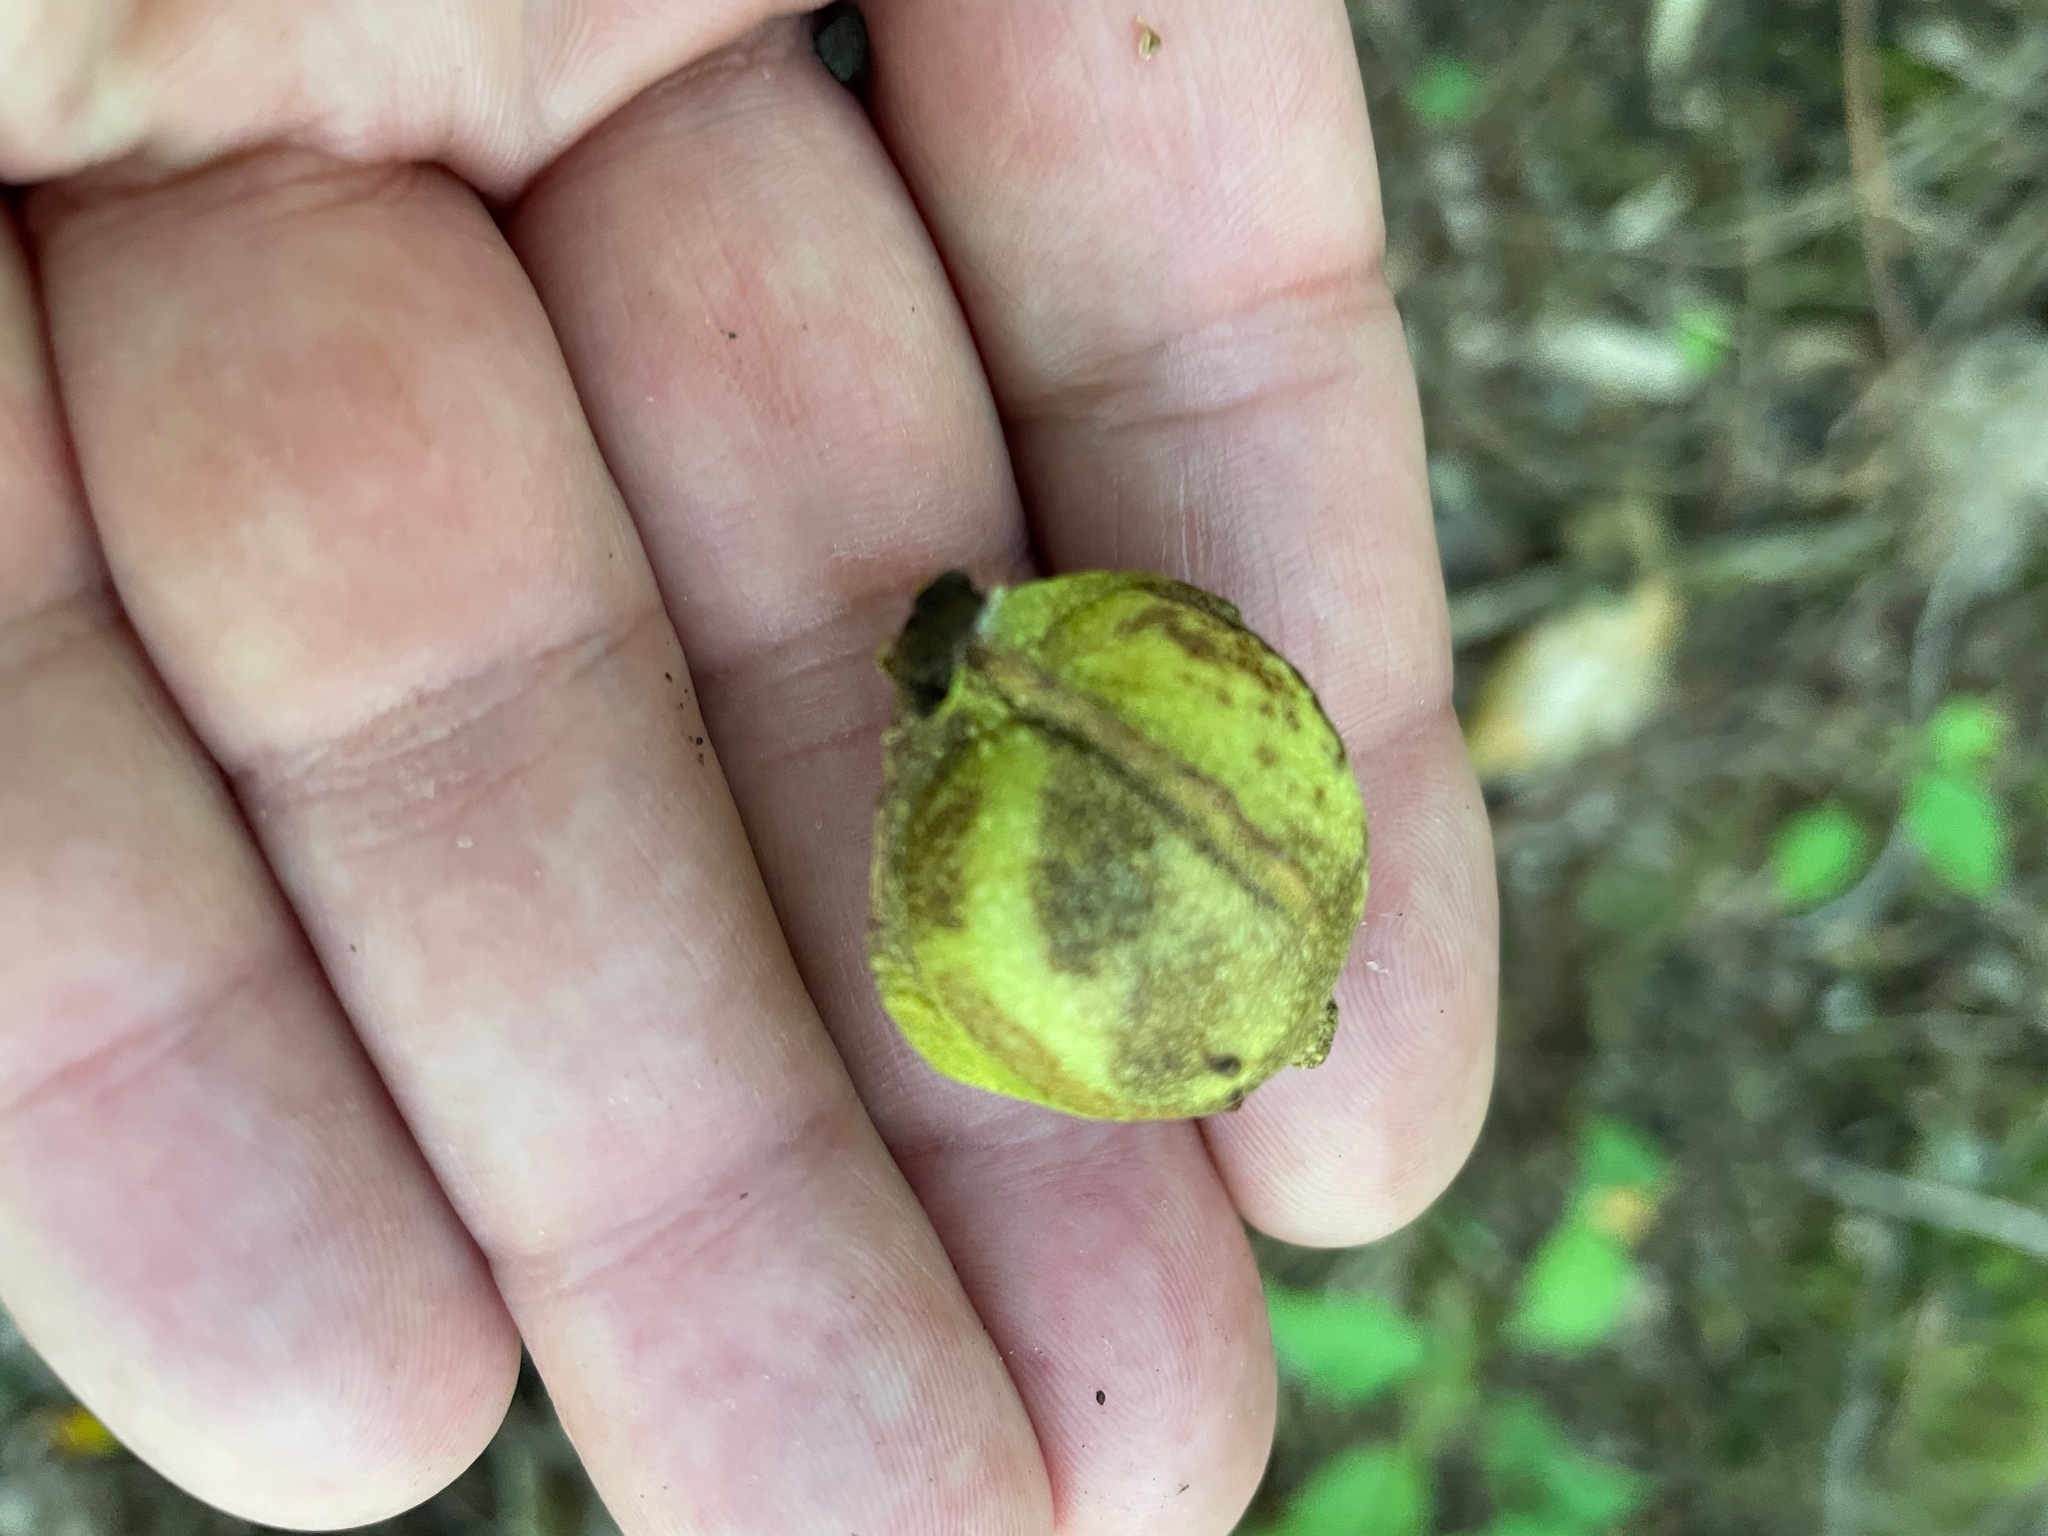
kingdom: Plantae
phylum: Tracheophyta
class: Magnoliopsida
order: Fagales
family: Juglandaceae
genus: Carya
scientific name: Carya cordiformis
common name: Bitternut hickory
